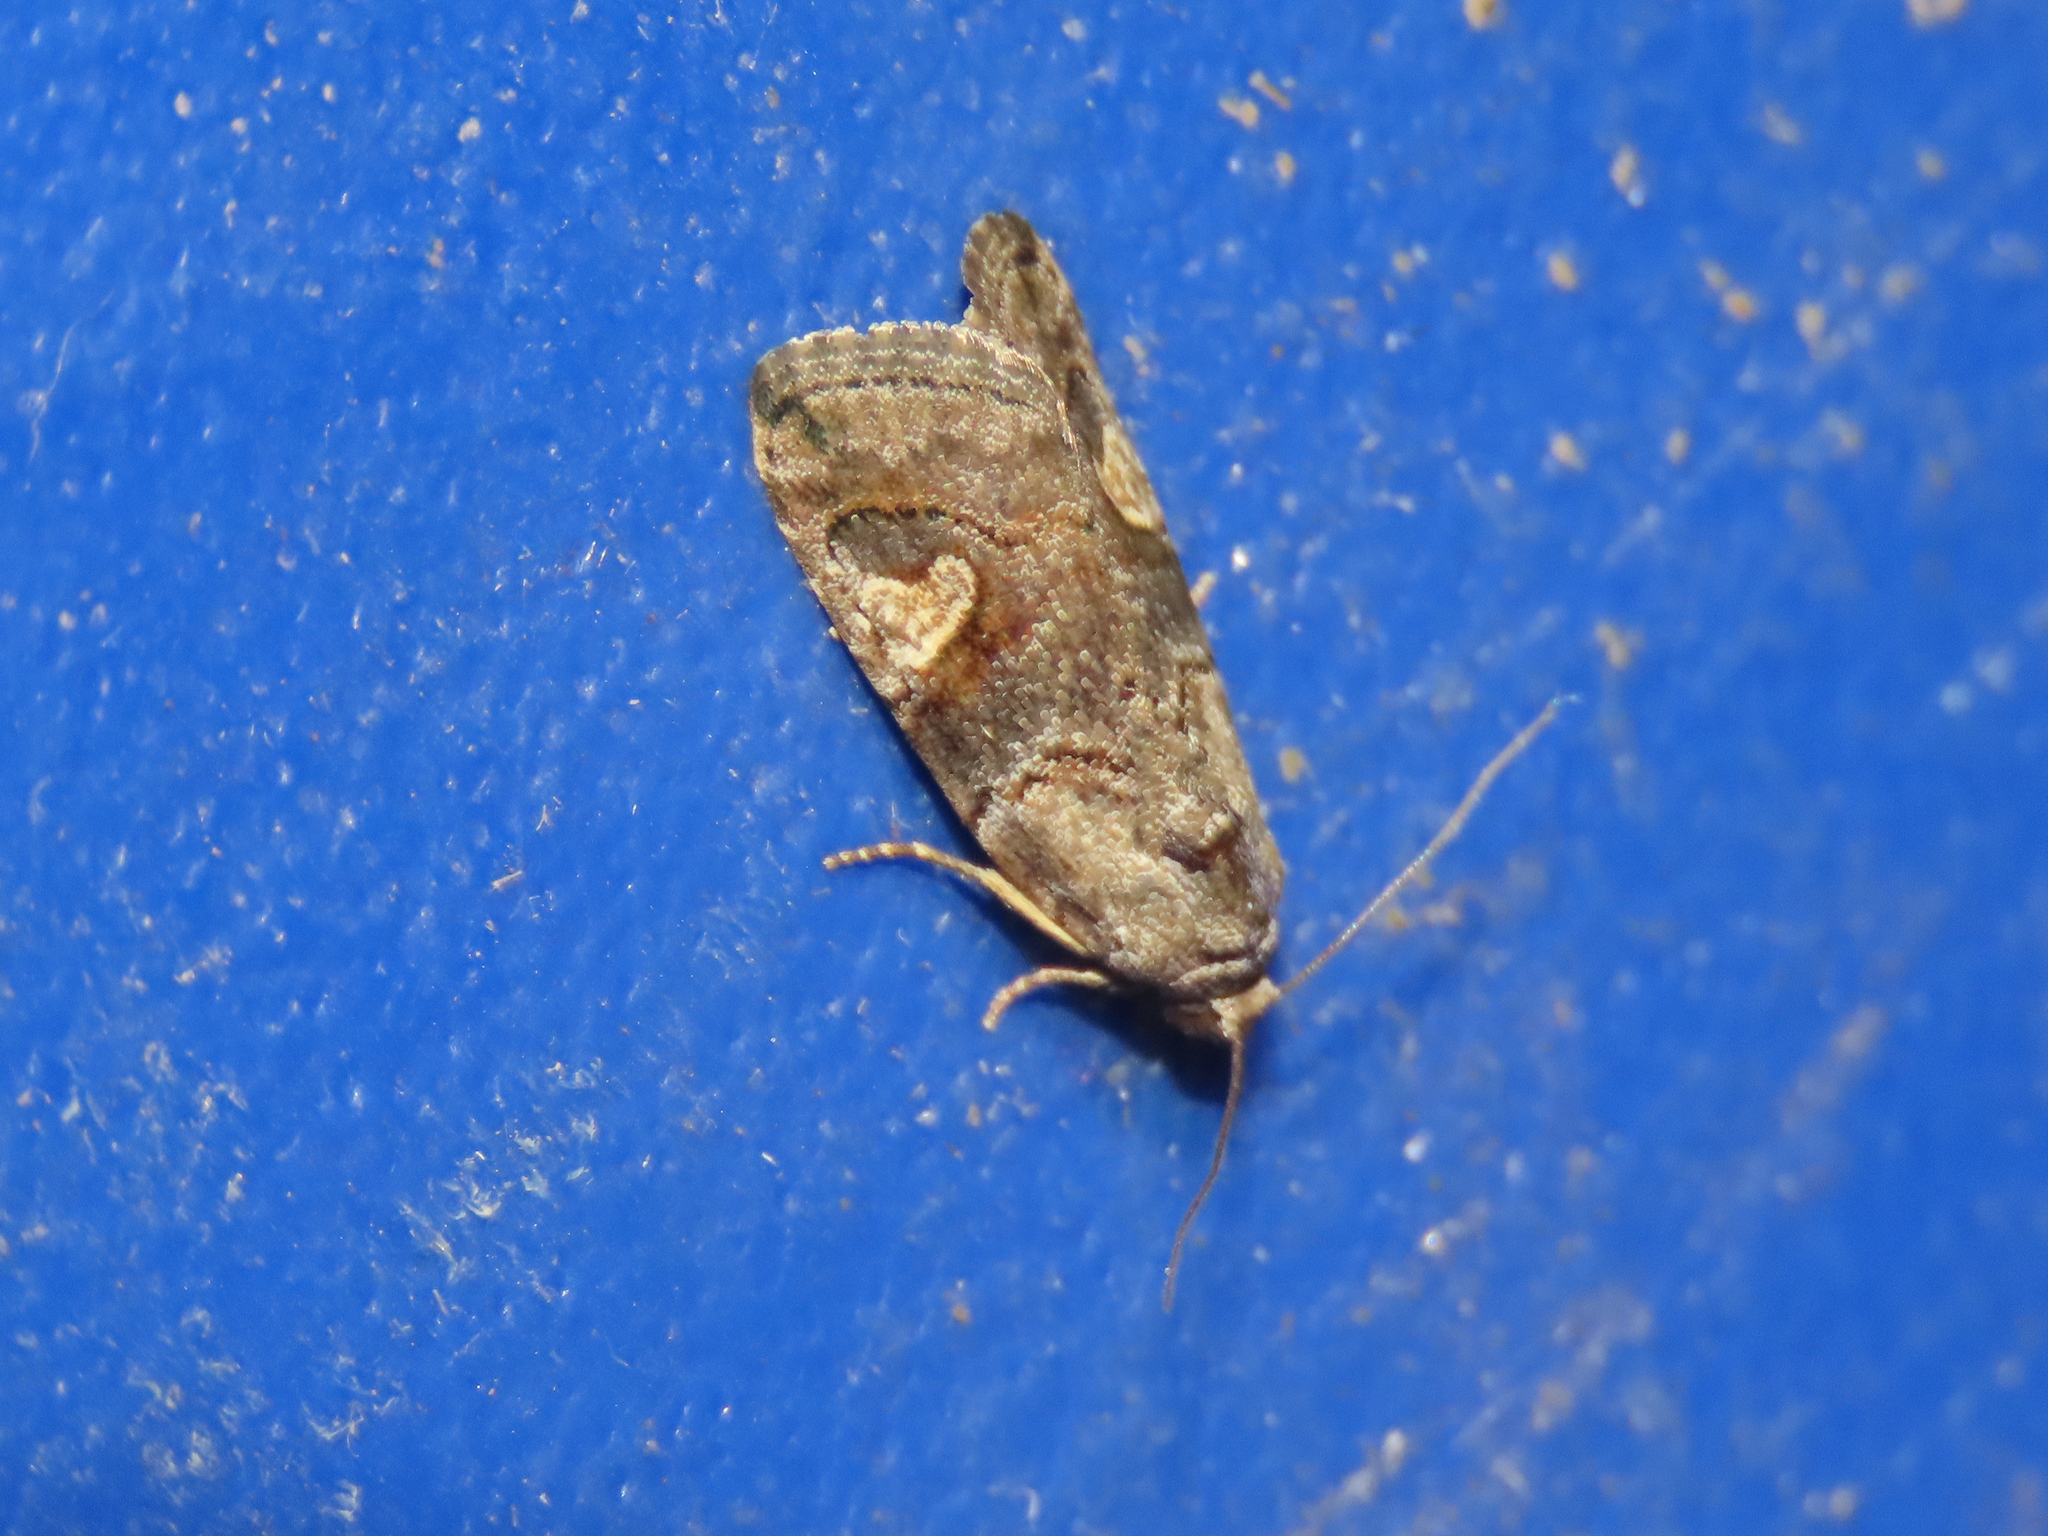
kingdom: Animalia
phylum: Arthropoda
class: Insecta
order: Lepidoptera
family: Noctuidae
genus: Metaponpneumata
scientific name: Metaponpneumata rogenhoferi
